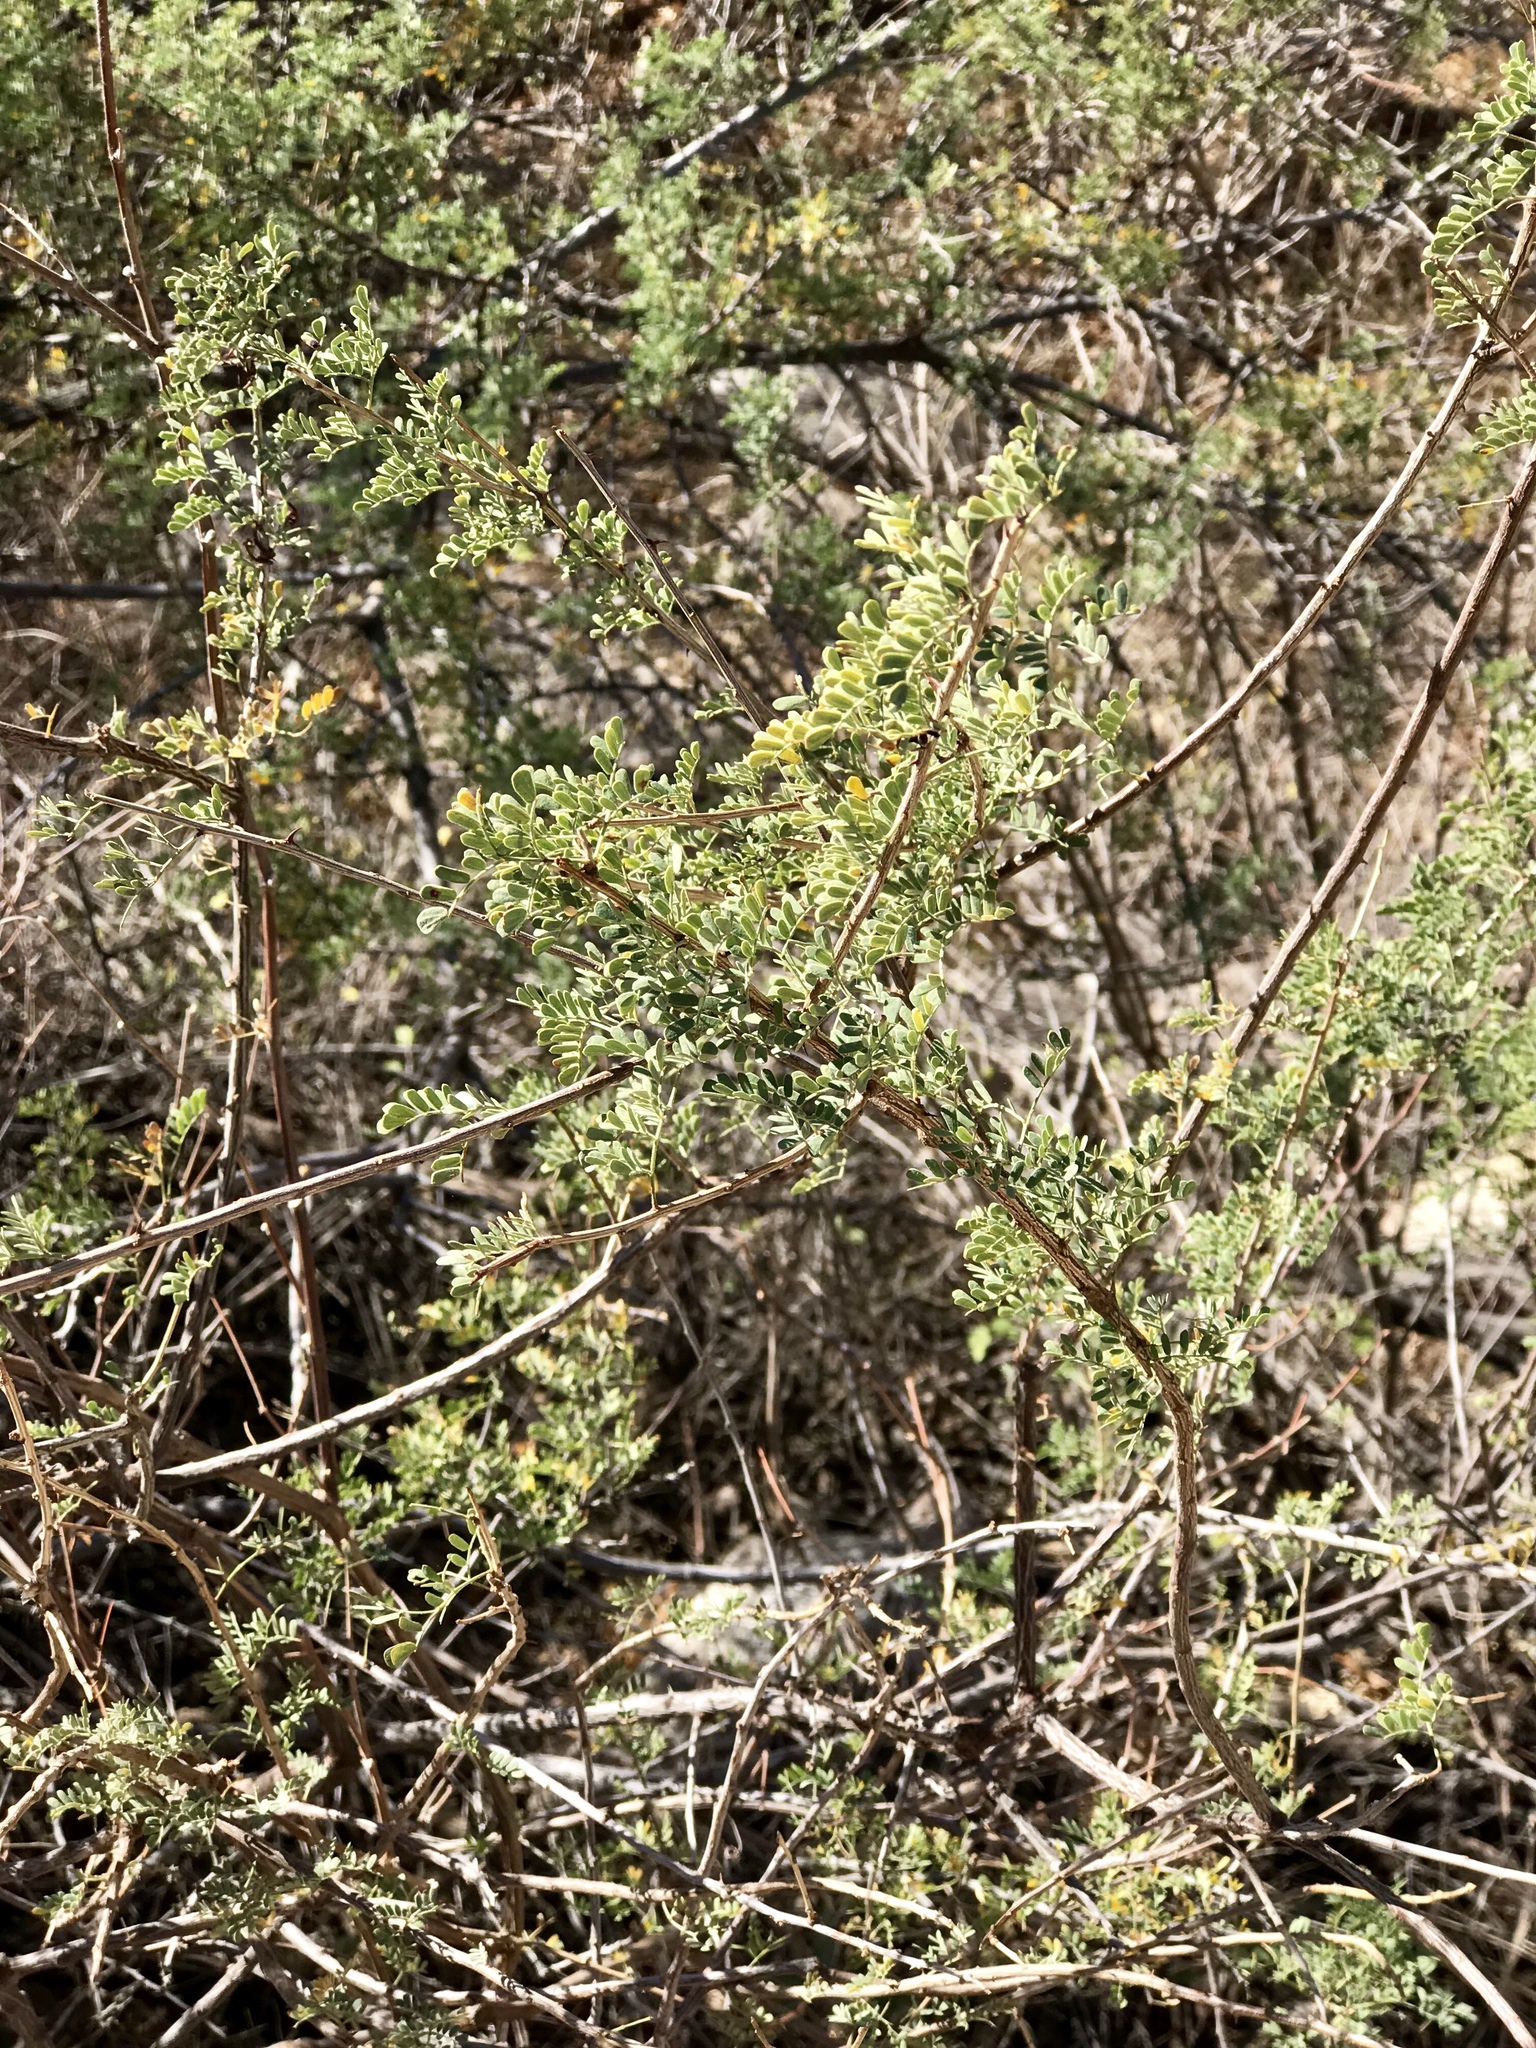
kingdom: Plantae
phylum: Tracheophyta
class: Magnoliopsida
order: Fabales
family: Fabaceae
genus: Senegalia
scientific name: Senegalia greggii
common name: Texas-mimosa
